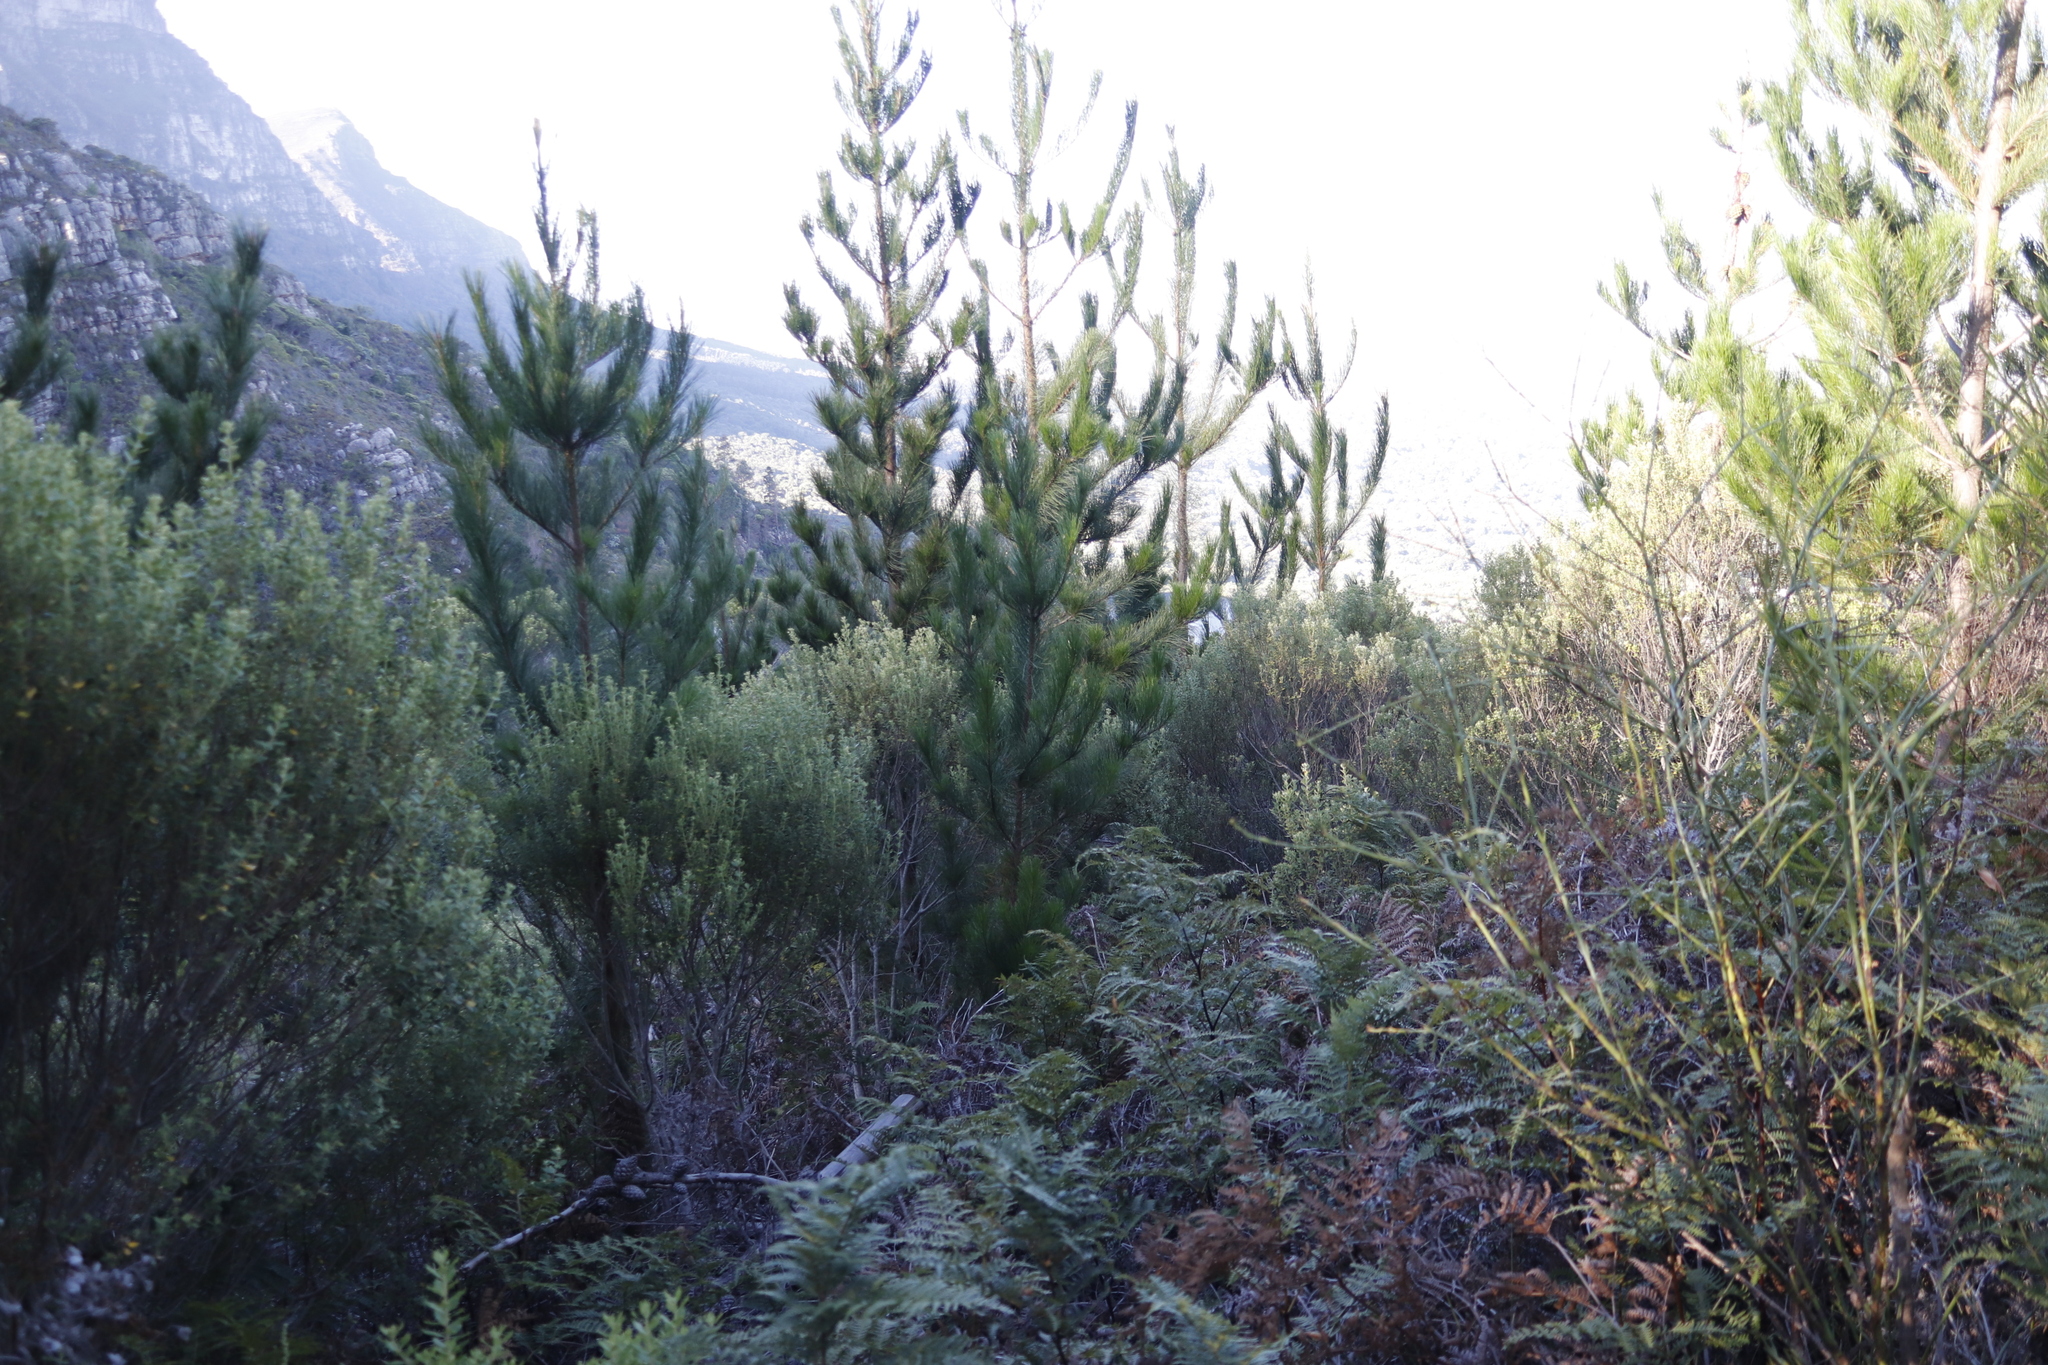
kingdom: Plantae
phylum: Tracheophyta
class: Pinopsida
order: Pinales
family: Pinaceae
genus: Pinus
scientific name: Pinus radiata
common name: Monterey pine
